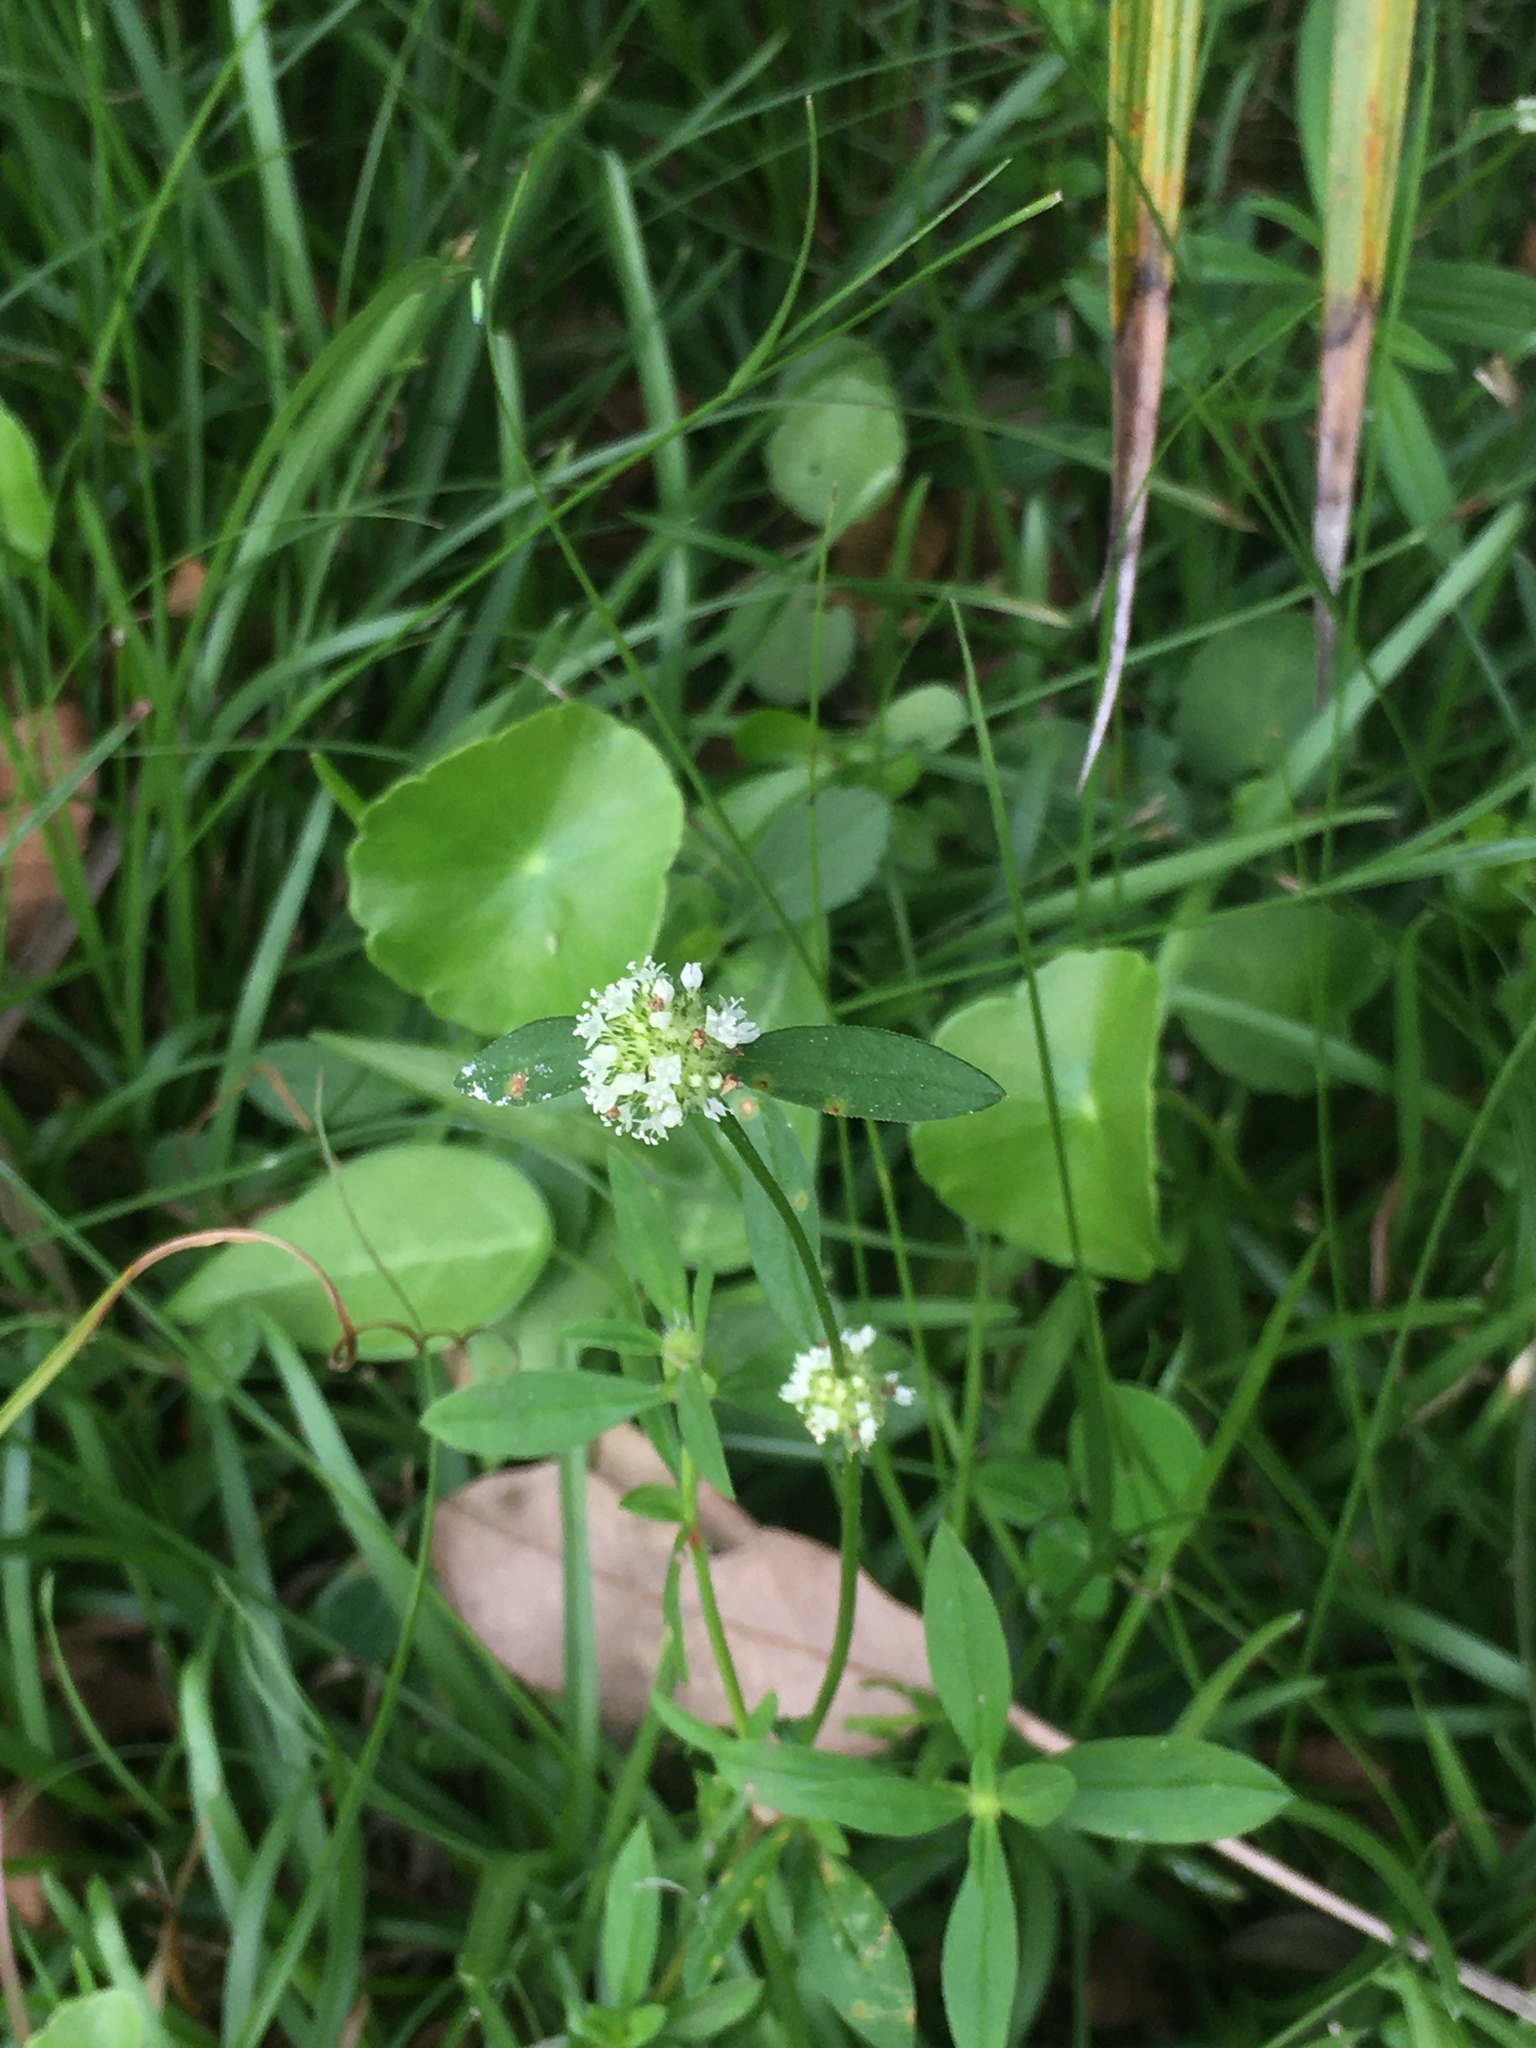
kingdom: Plantae
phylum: Tracheophyta
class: Magnoliopsida
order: Gentianales
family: Rubiaceae
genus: Spermacoce
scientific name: Spermacoce verticillata
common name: Shrubby false buttonweed
